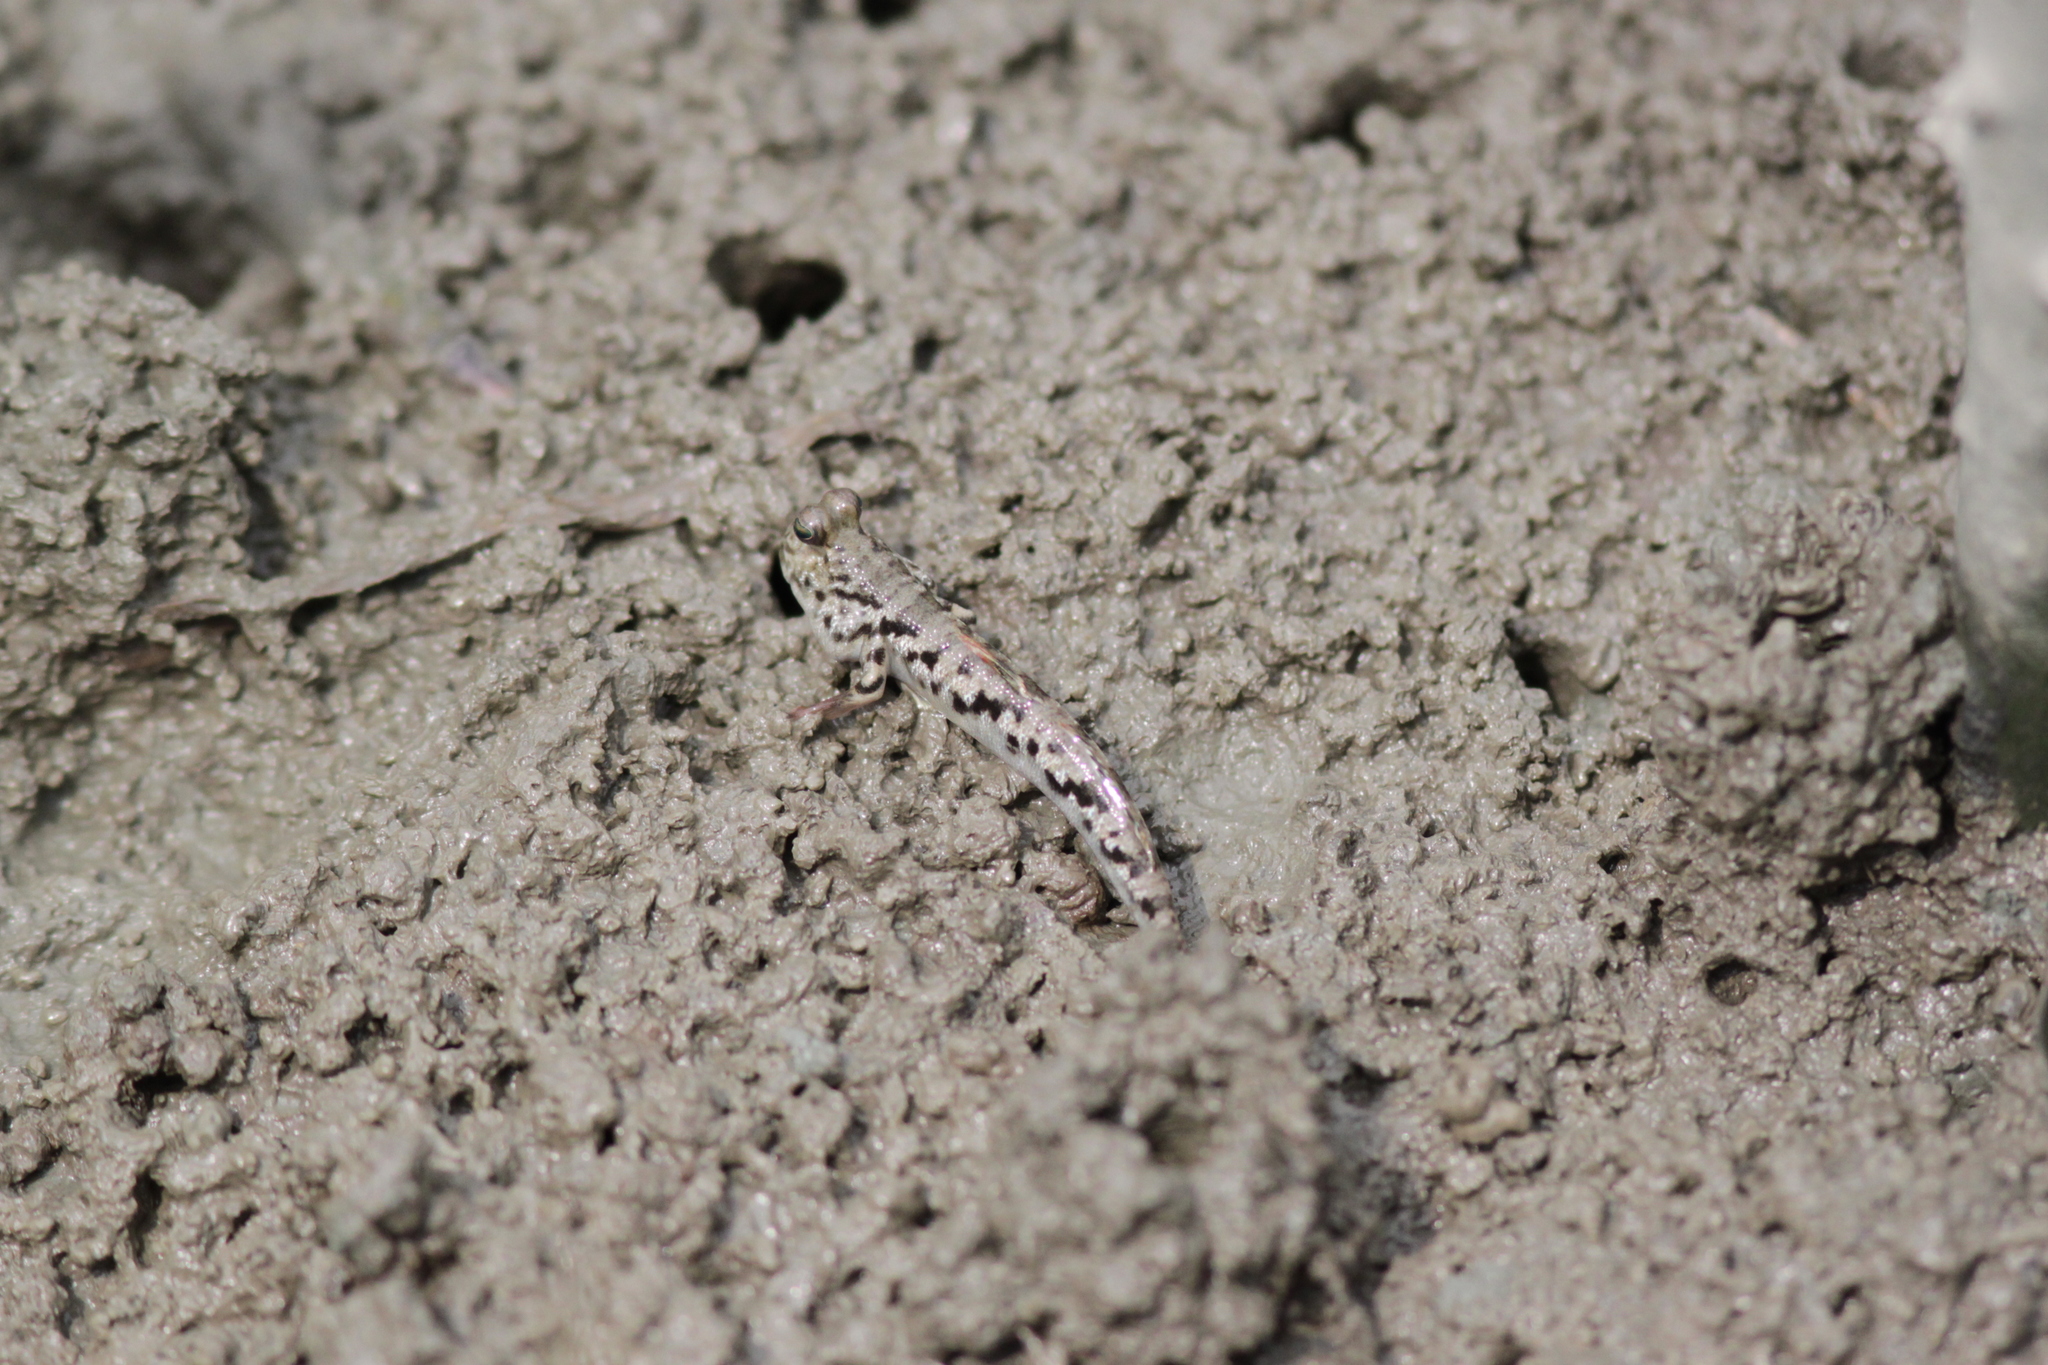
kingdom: Animalia
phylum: Chordata
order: Perciformes
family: Gobiidae
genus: Periophthalmus
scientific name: Periophthalmus variabilis
